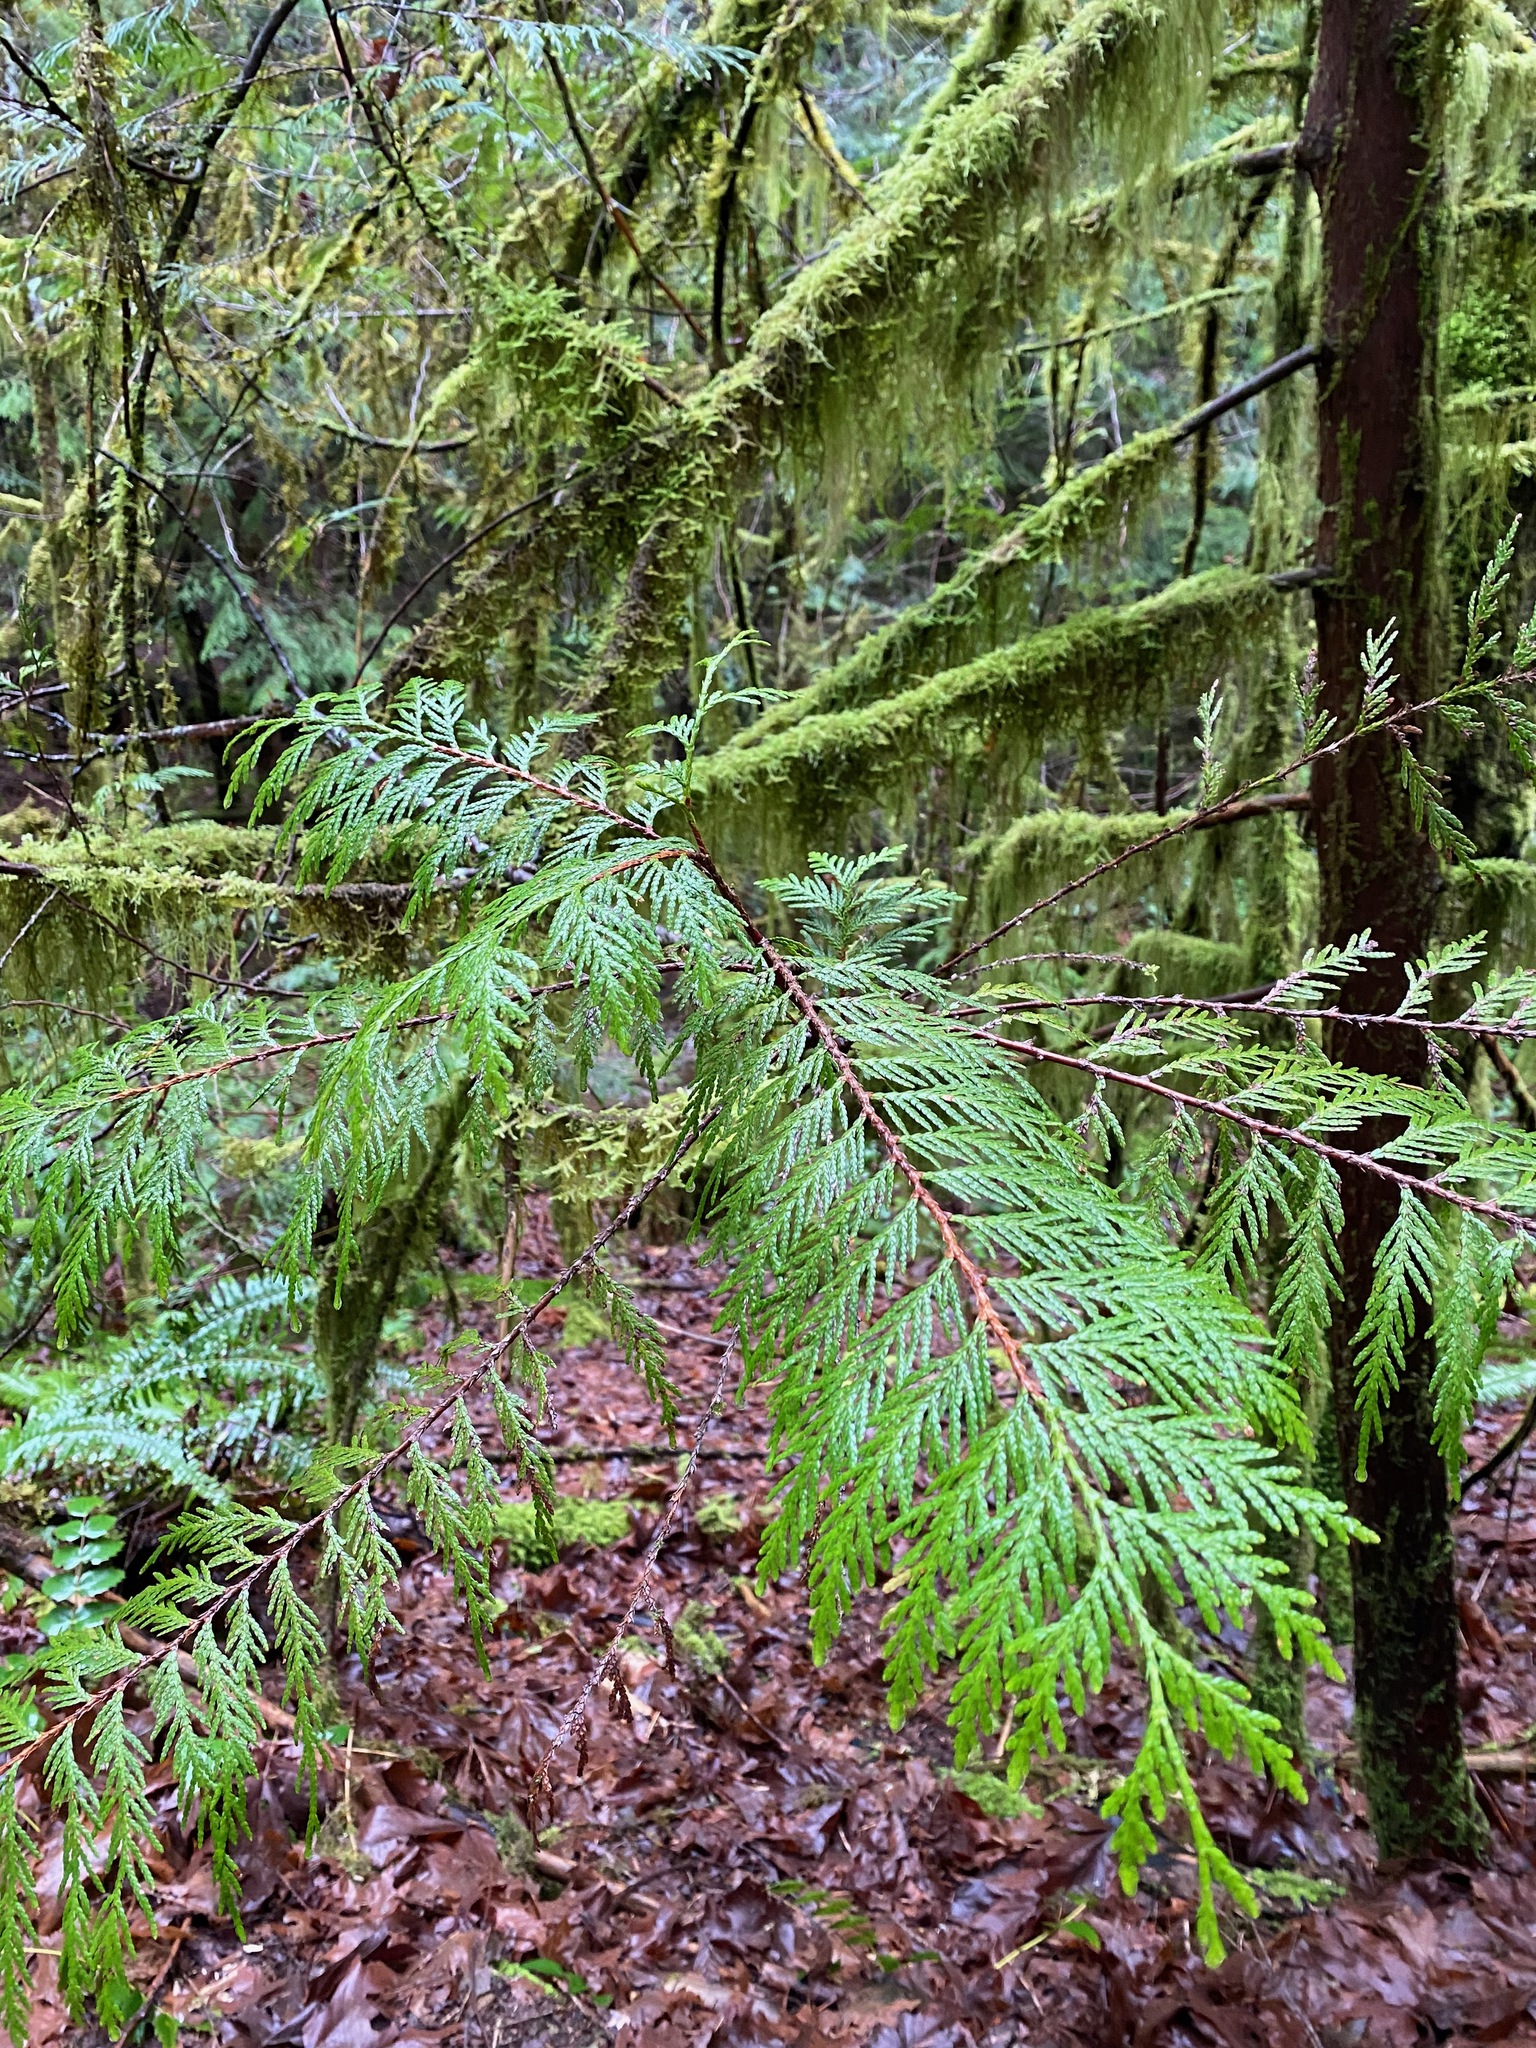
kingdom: Plantae
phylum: Tracheophyta
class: Pinopsida
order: Pinales
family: Cupressaceae
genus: Thuja
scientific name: Thuja plicata
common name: Western red-cedar
